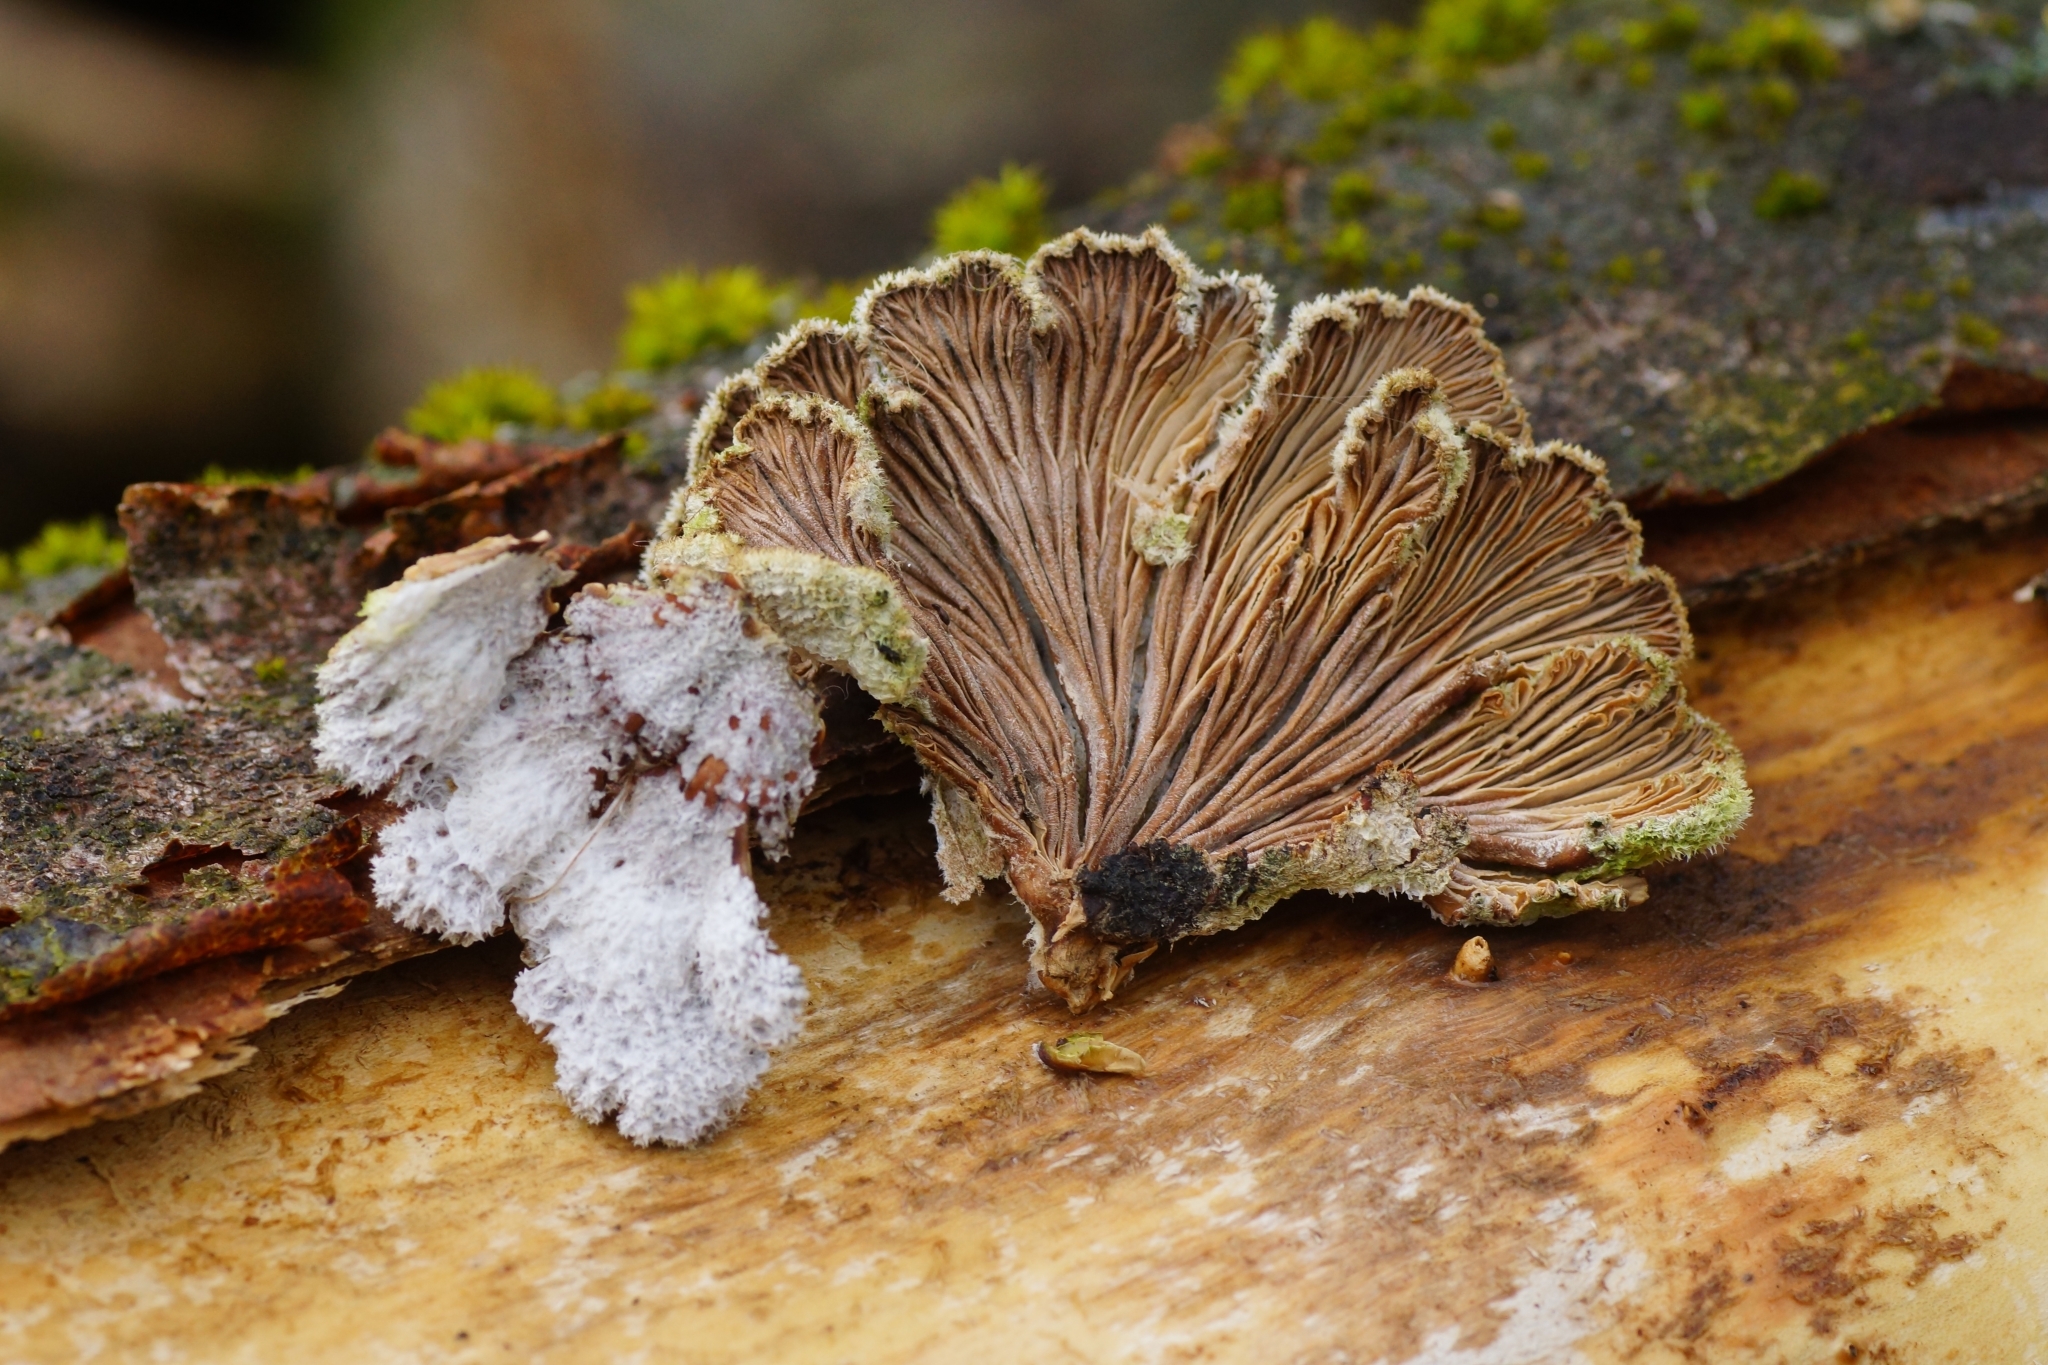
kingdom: Fungi
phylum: Basidiomycota
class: Agaricomycetes
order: Agaricales
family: Schizophyllaceae
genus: Schizophyllum
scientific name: Schizophyllum commune
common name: Common porecrust
